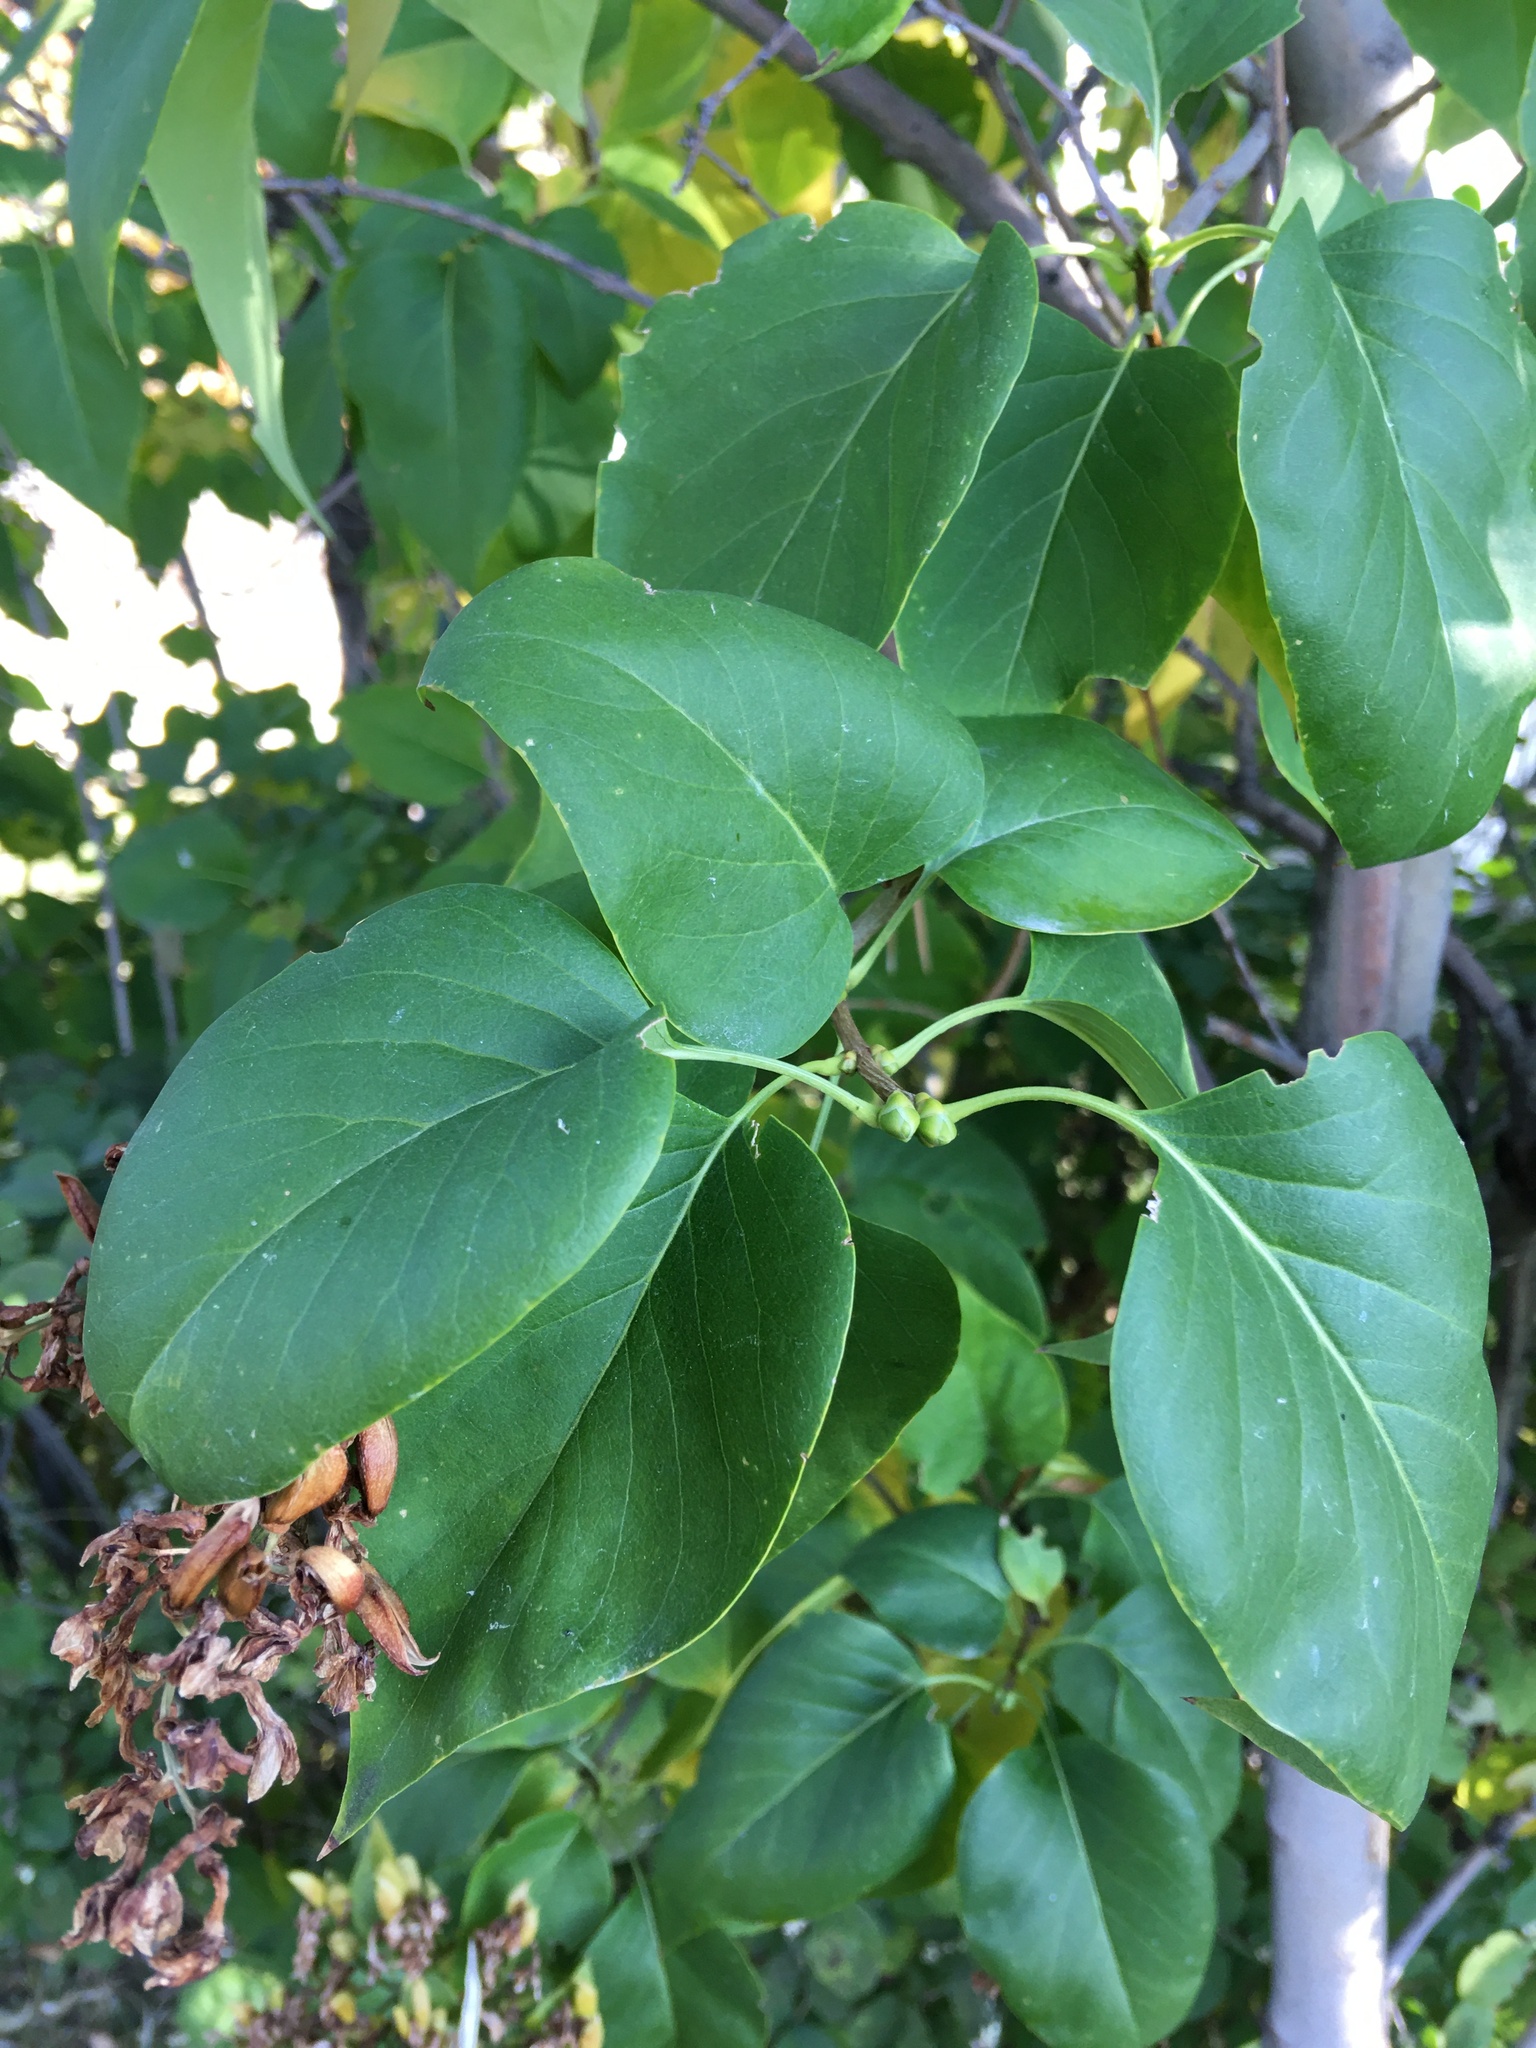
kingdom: Plantae
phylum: Tracheophyta
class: Magnoliopsida
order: Lamiales
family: Oleaceae
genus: Syringa
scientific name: Syringa vulgaris
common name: Common lilac
